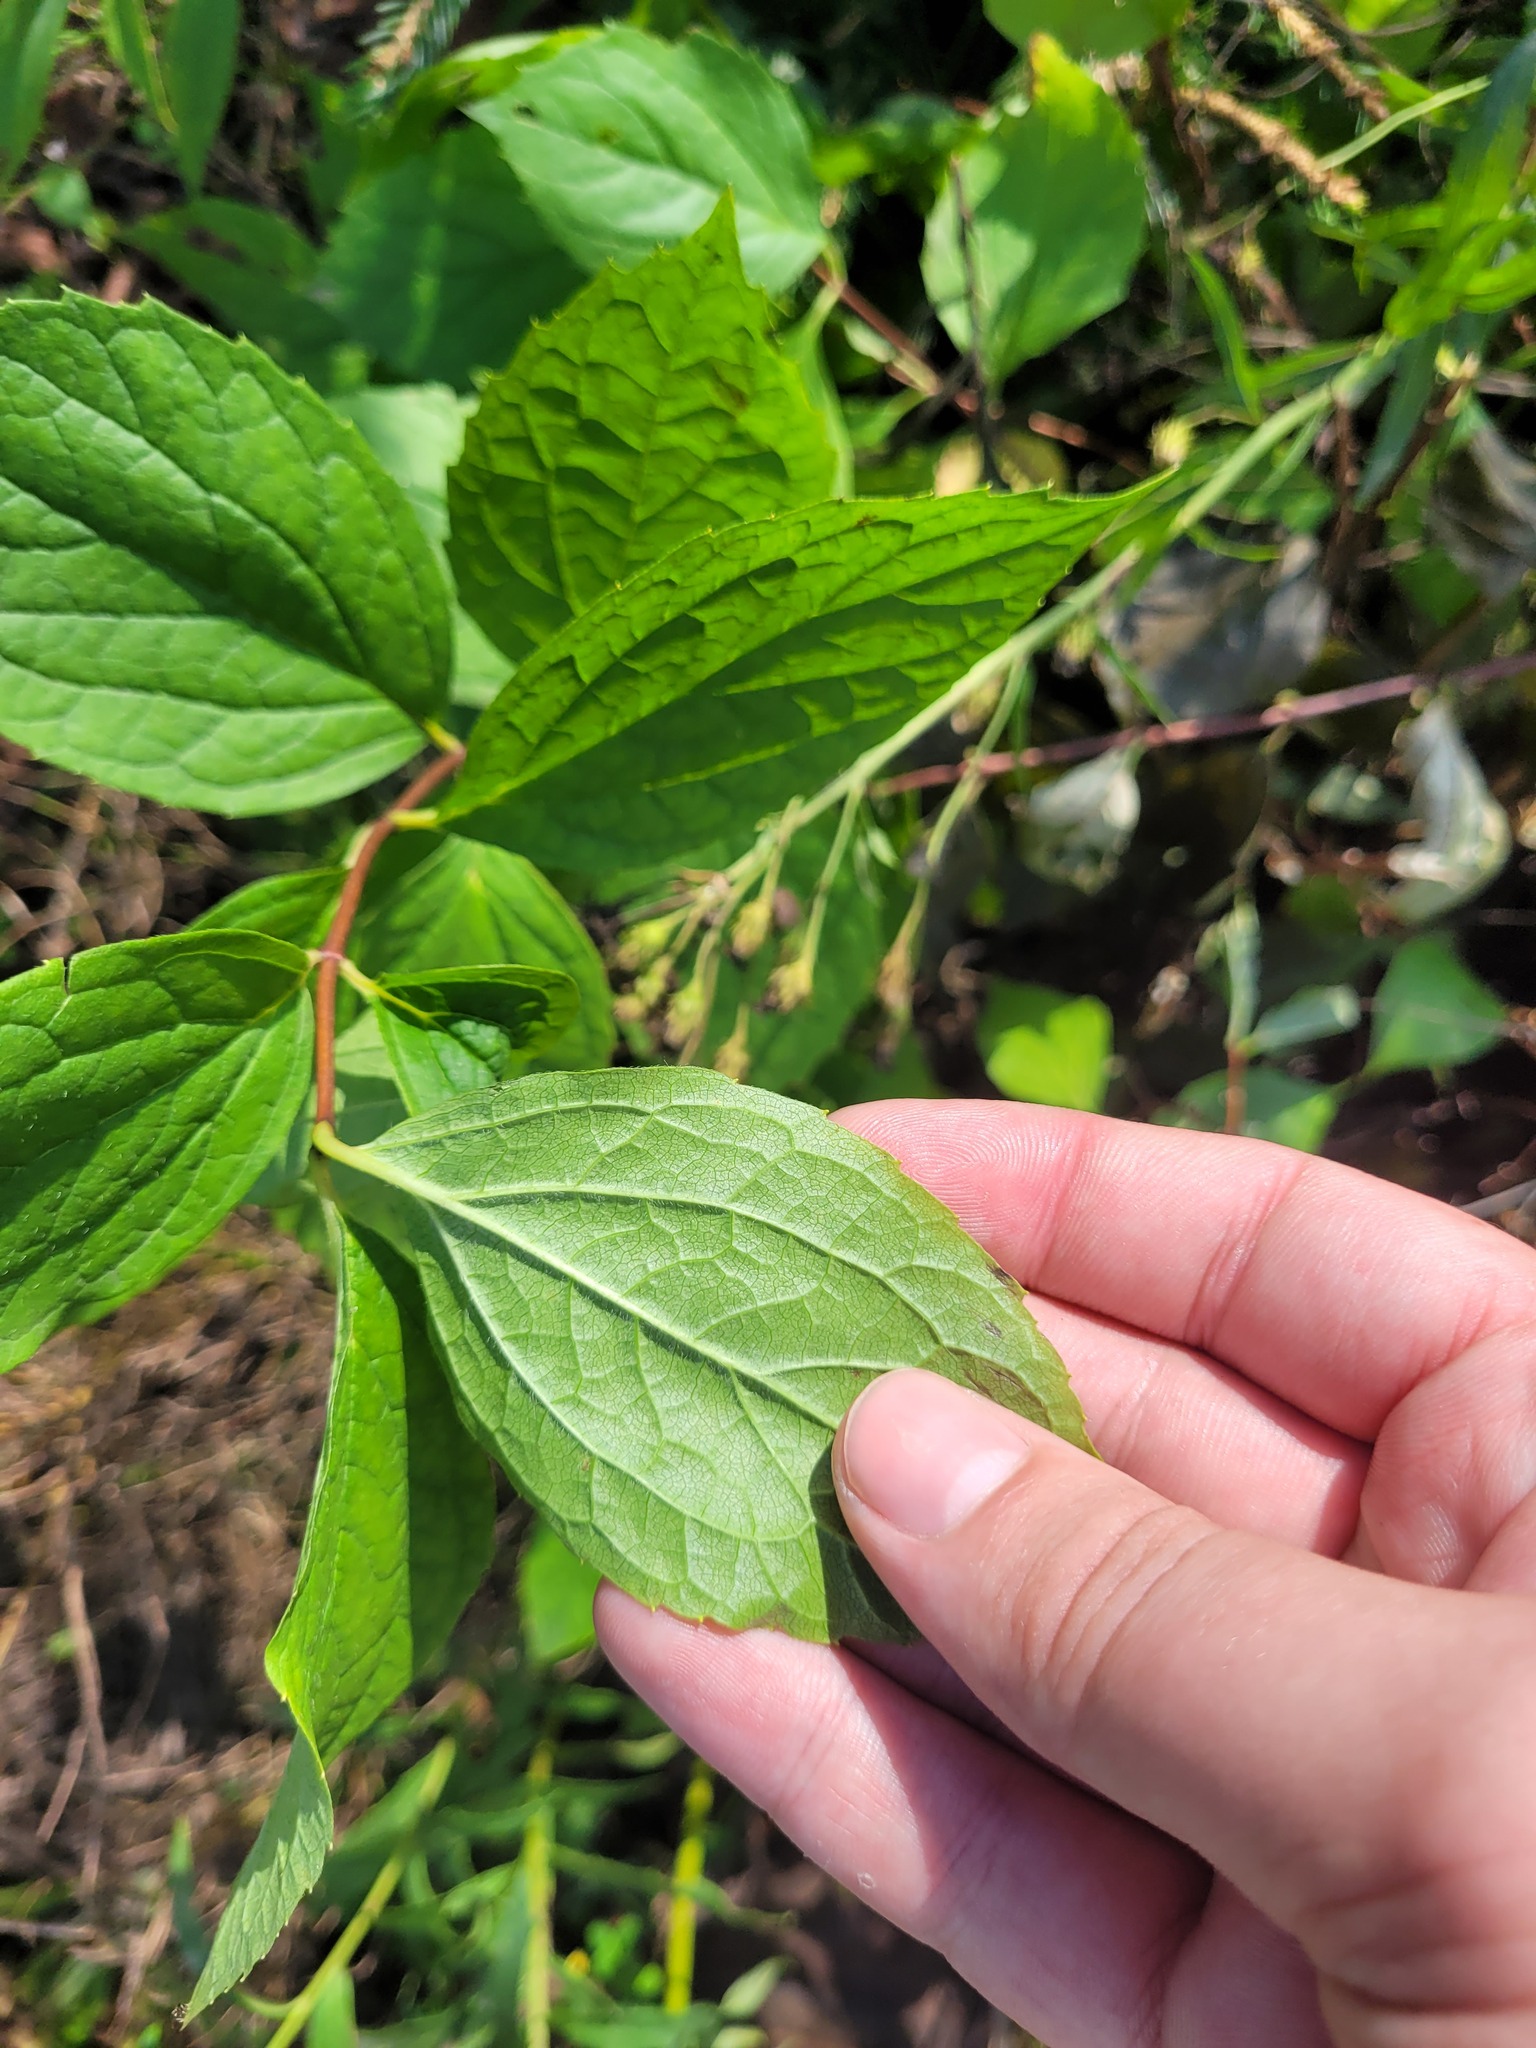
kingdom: Plantae
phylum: Tracheophyta
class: Magnoliopsida
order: Cornales
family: Hydrangeaceae
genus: Philadelphus
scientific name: Philadelphus coronarius
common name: Mock orange
